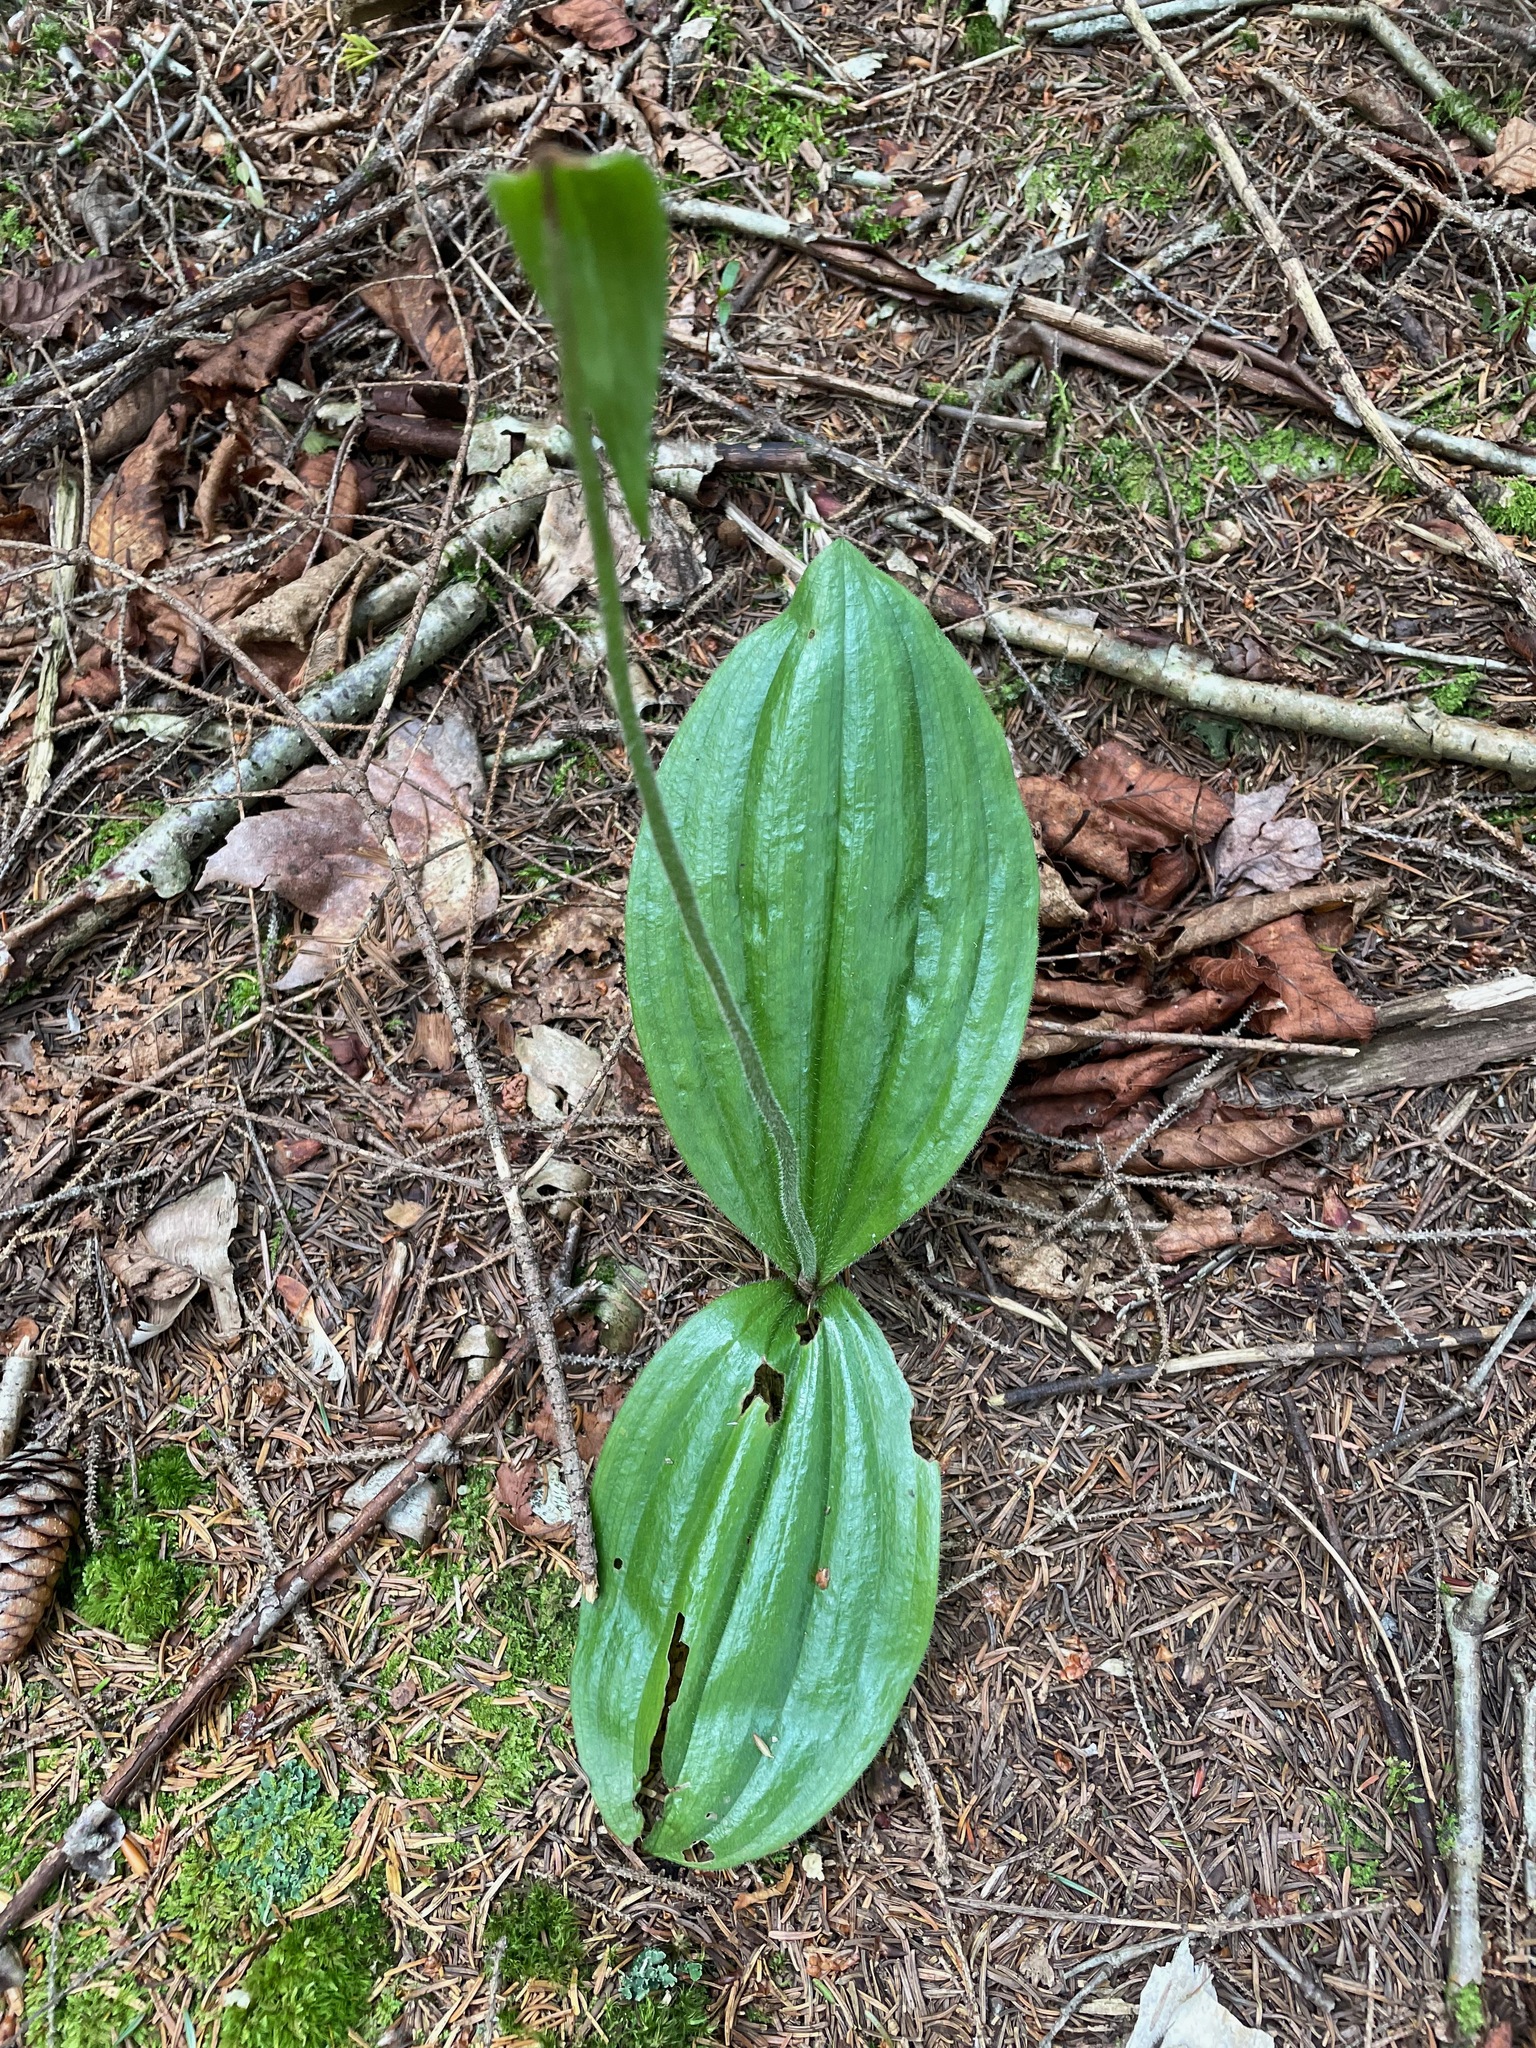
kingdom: Plantae
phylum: Tracheophyta
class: Liliopsida
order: Asparagales
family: Orchidaceae
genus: Cypripedium
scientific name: Cypripedium acaule
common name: Pink lady's-slipper
